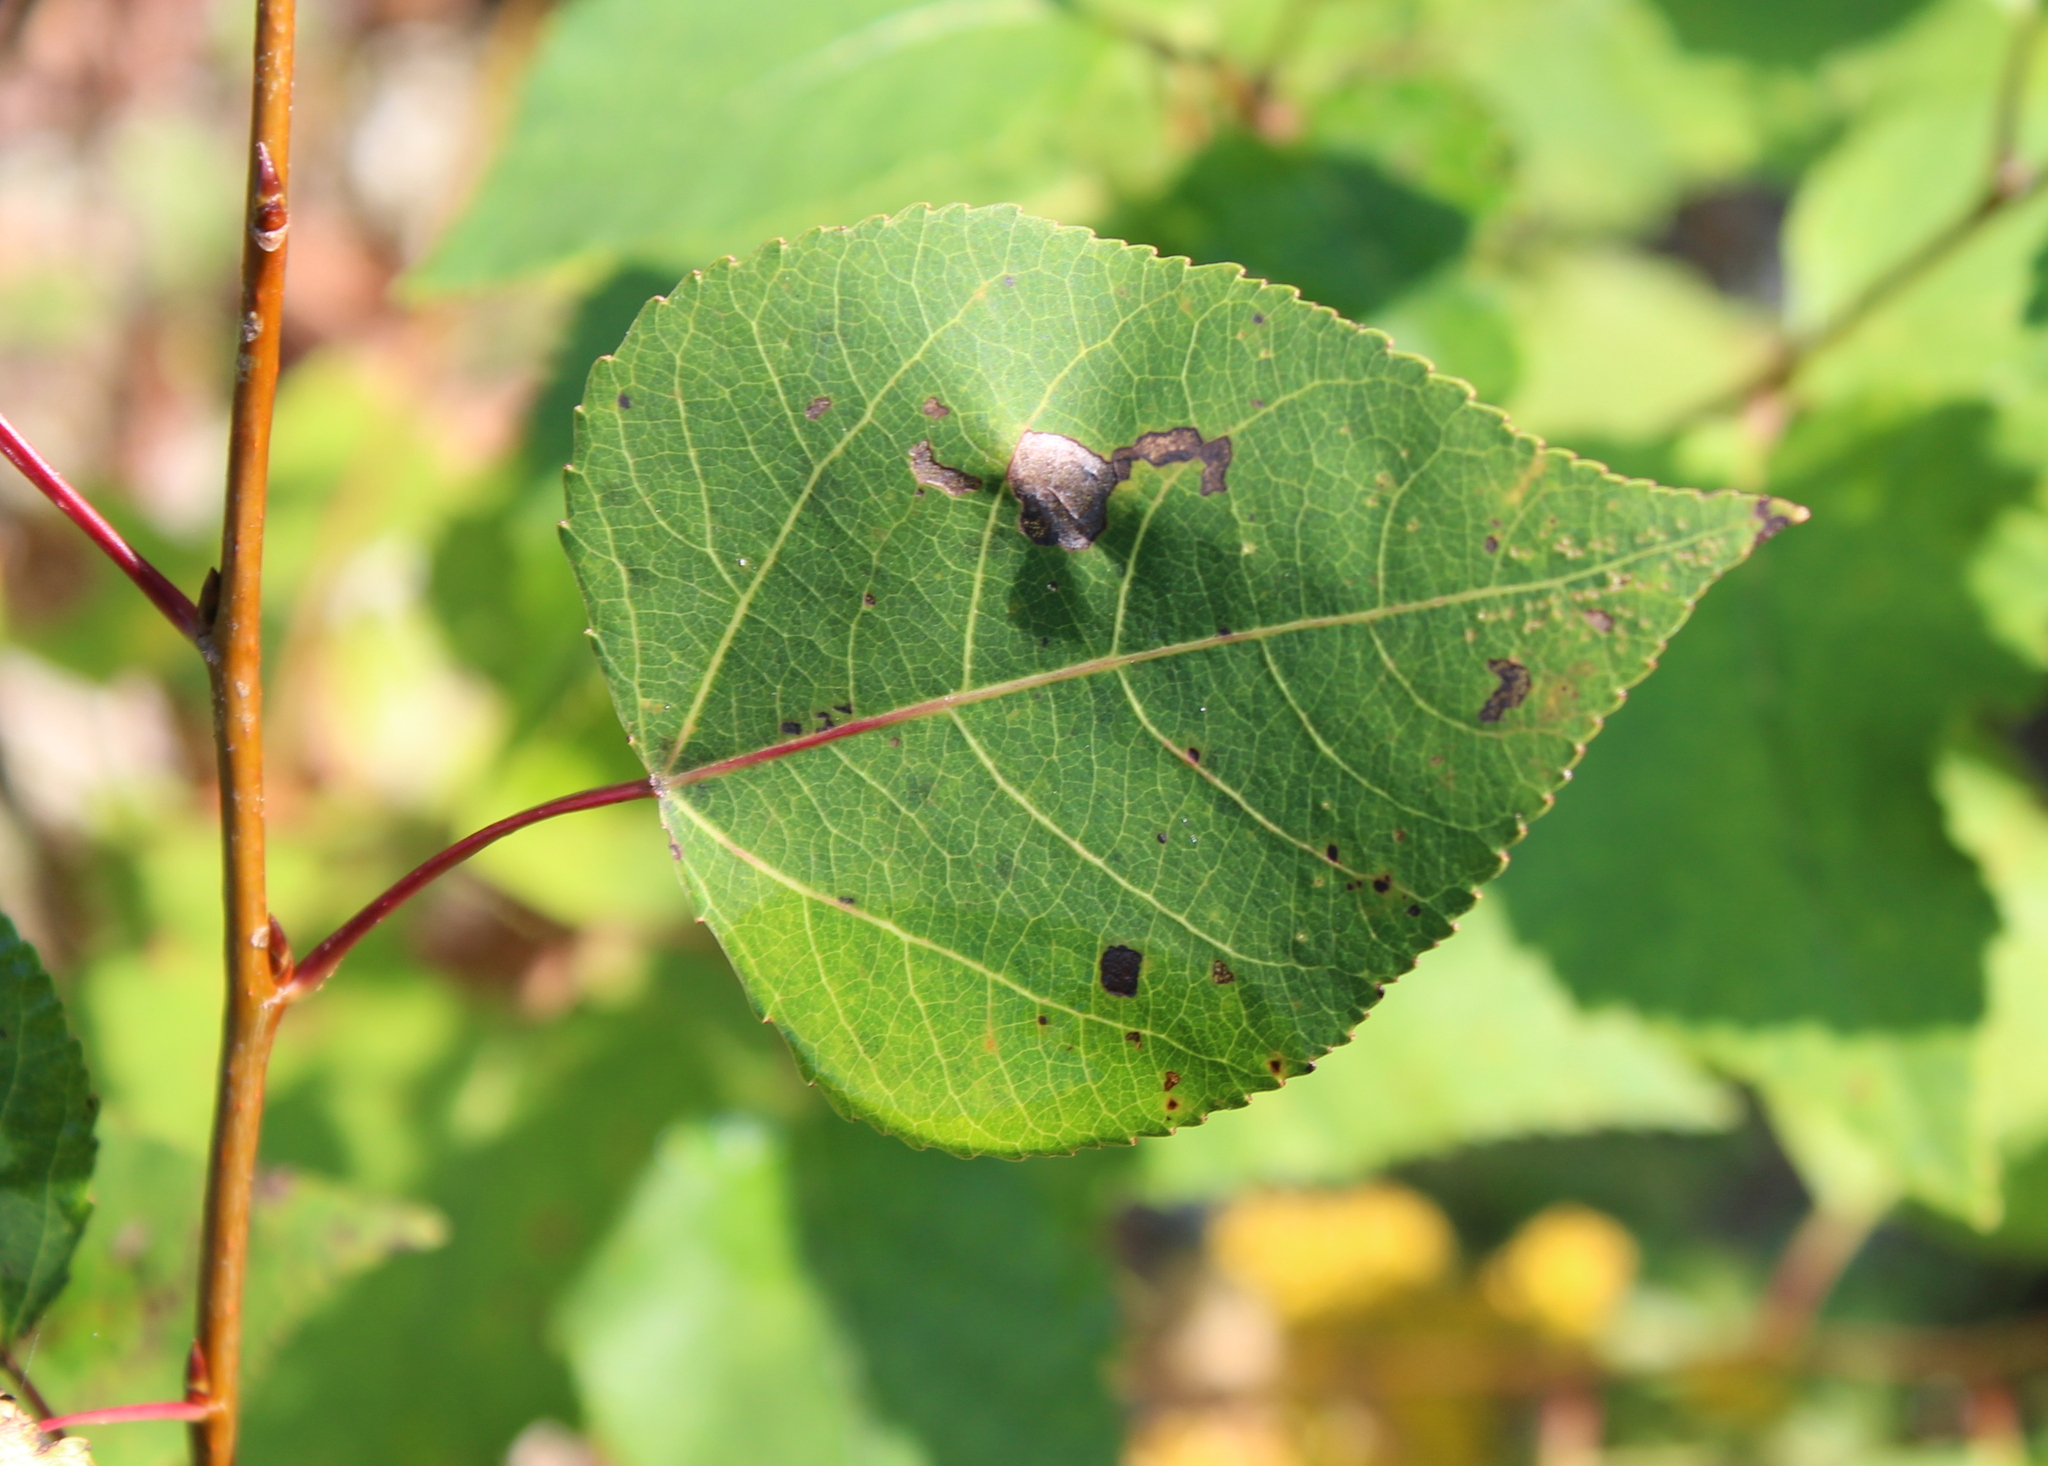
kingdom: Plantae
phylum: Tracheophyta
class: Magnoliopsida
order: Malpighiales
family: Salicaceae
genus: Populus
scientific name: Populus tremuloides
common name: Quaking aspen
